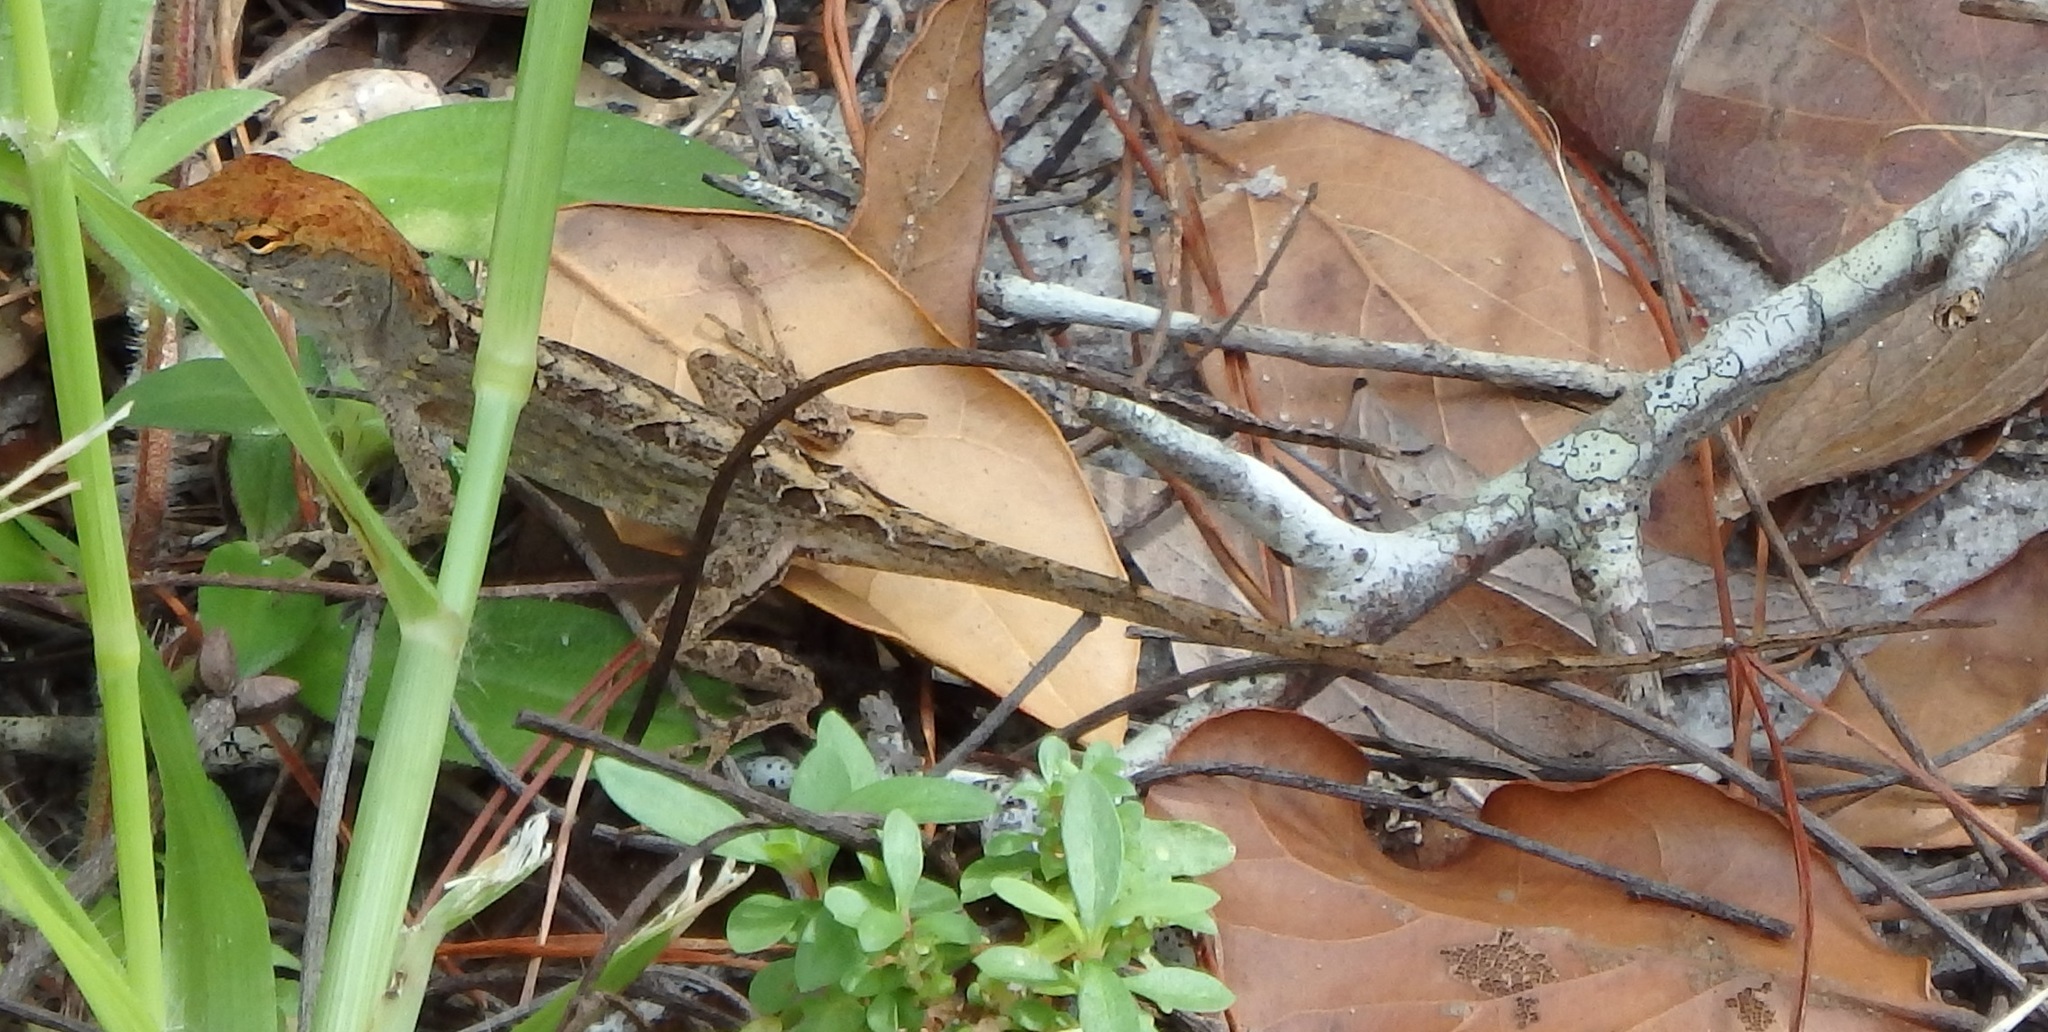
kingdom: Animalia
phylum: Chordata
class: Squamata
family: Dactyloidae
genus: Anolis
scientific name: Anolis sagrei
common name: Brown anole
